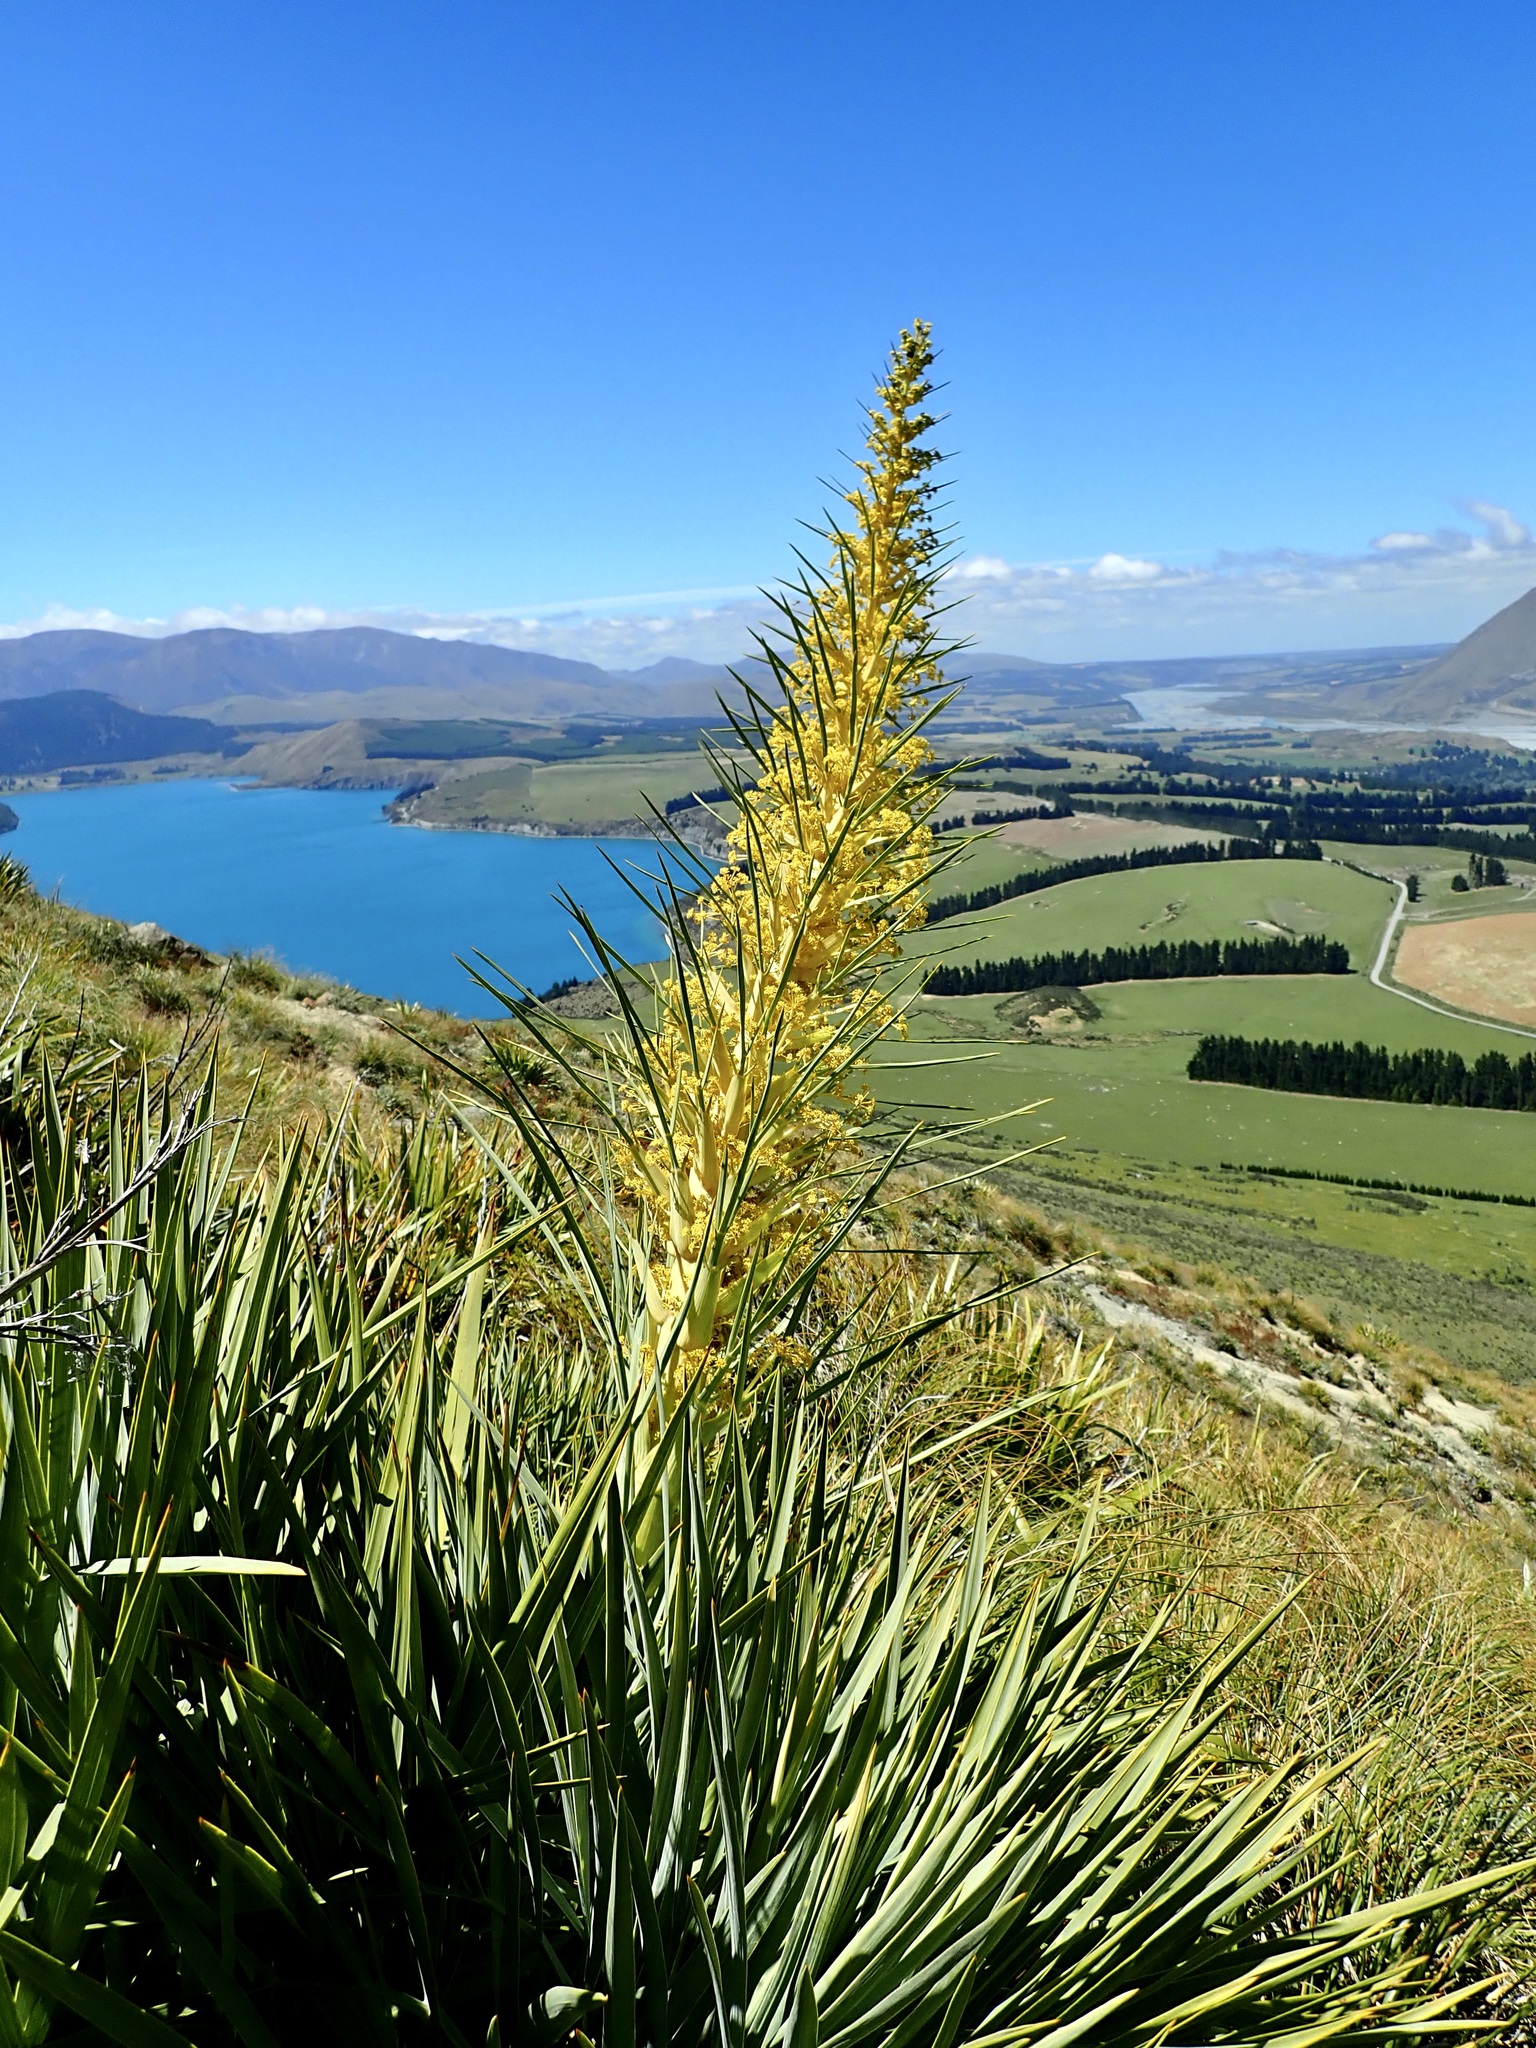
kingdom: Plantae
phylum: Tracheophyta
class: Magnoliopsida
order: Apiales
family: Apiaceae
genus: Aciphylla
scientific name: Aciphylla scott-thomsonii
